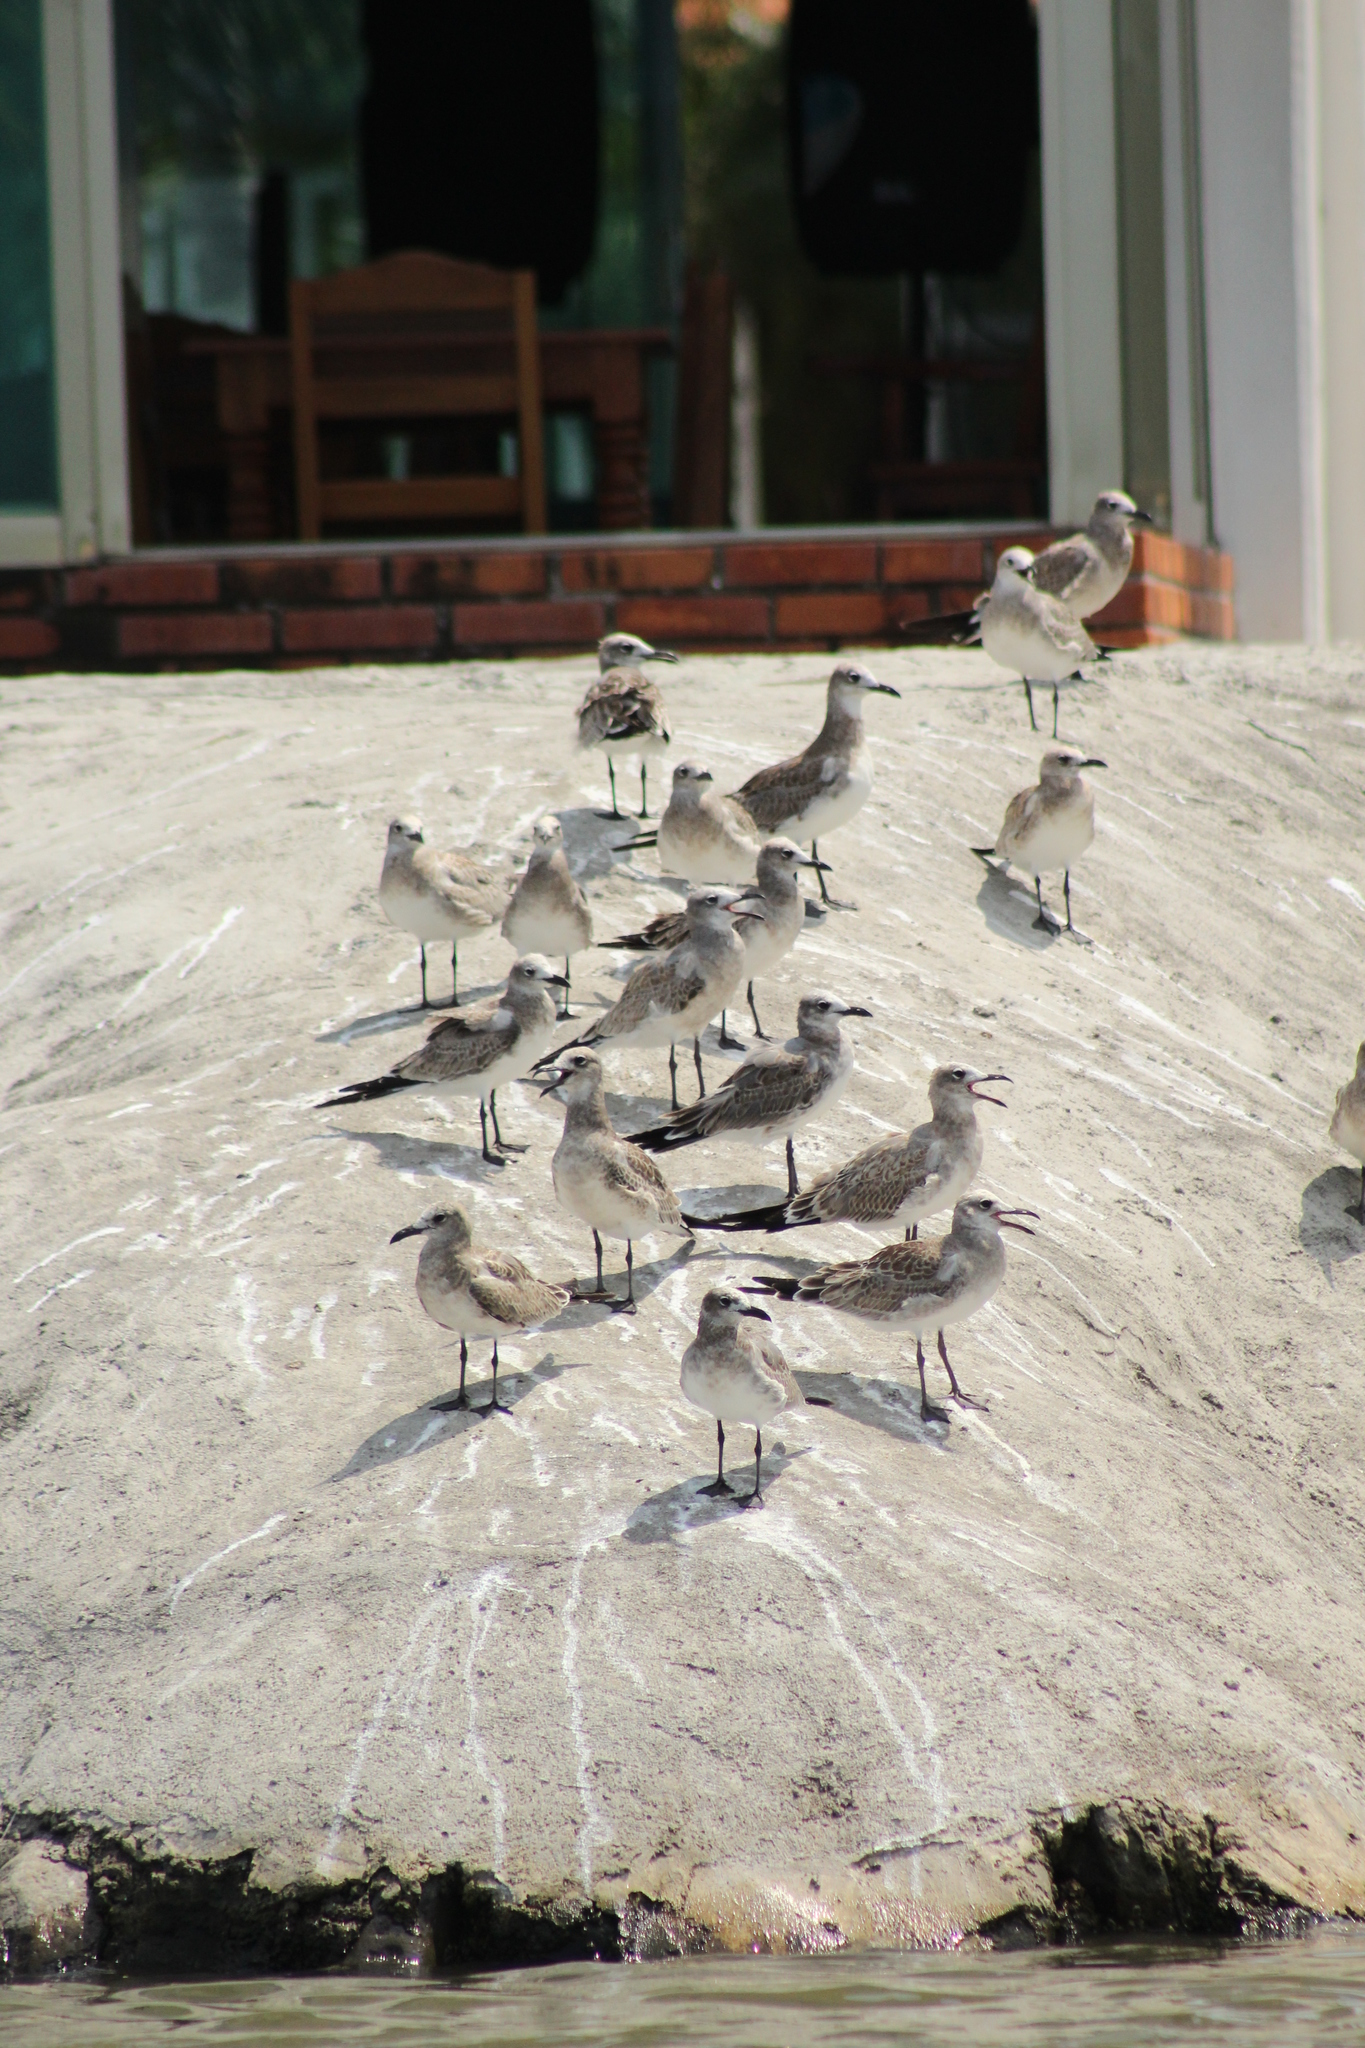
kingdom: Animalia
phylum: Chordata
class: Aves
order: Charadriiformes
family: Laridae
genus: Leucophaeus
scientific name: Leucophaeus atricilla
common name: Laughing gull
